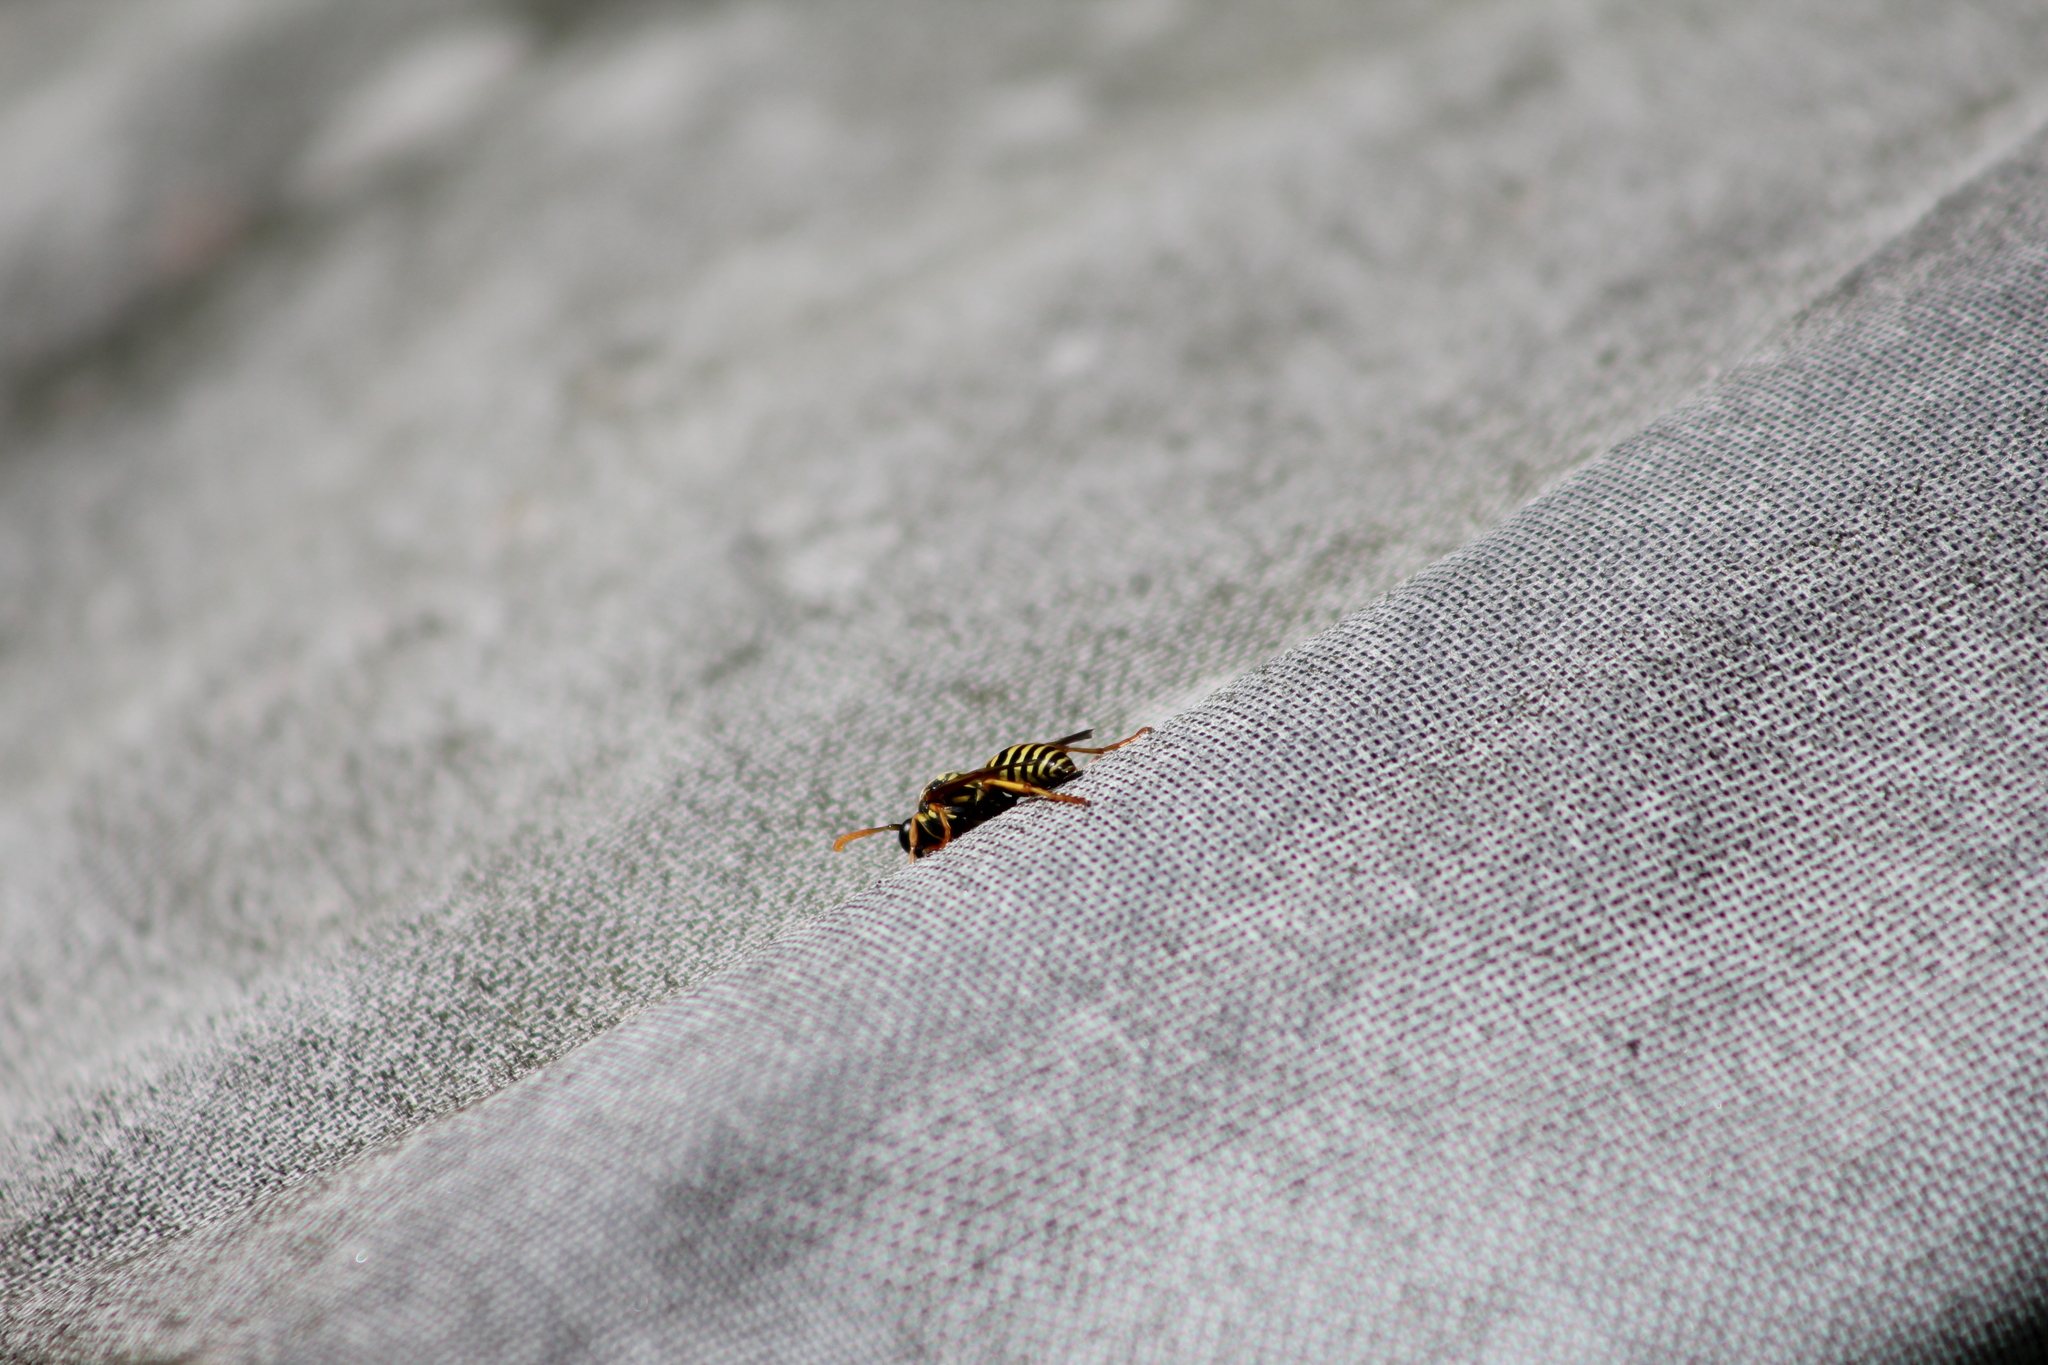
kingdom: Animalia
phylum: Arthropoda
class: Insecta
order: Hymenoptera
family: Eumenidae
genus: Polistes
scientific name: Polistes dominula
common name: Paper wasp
